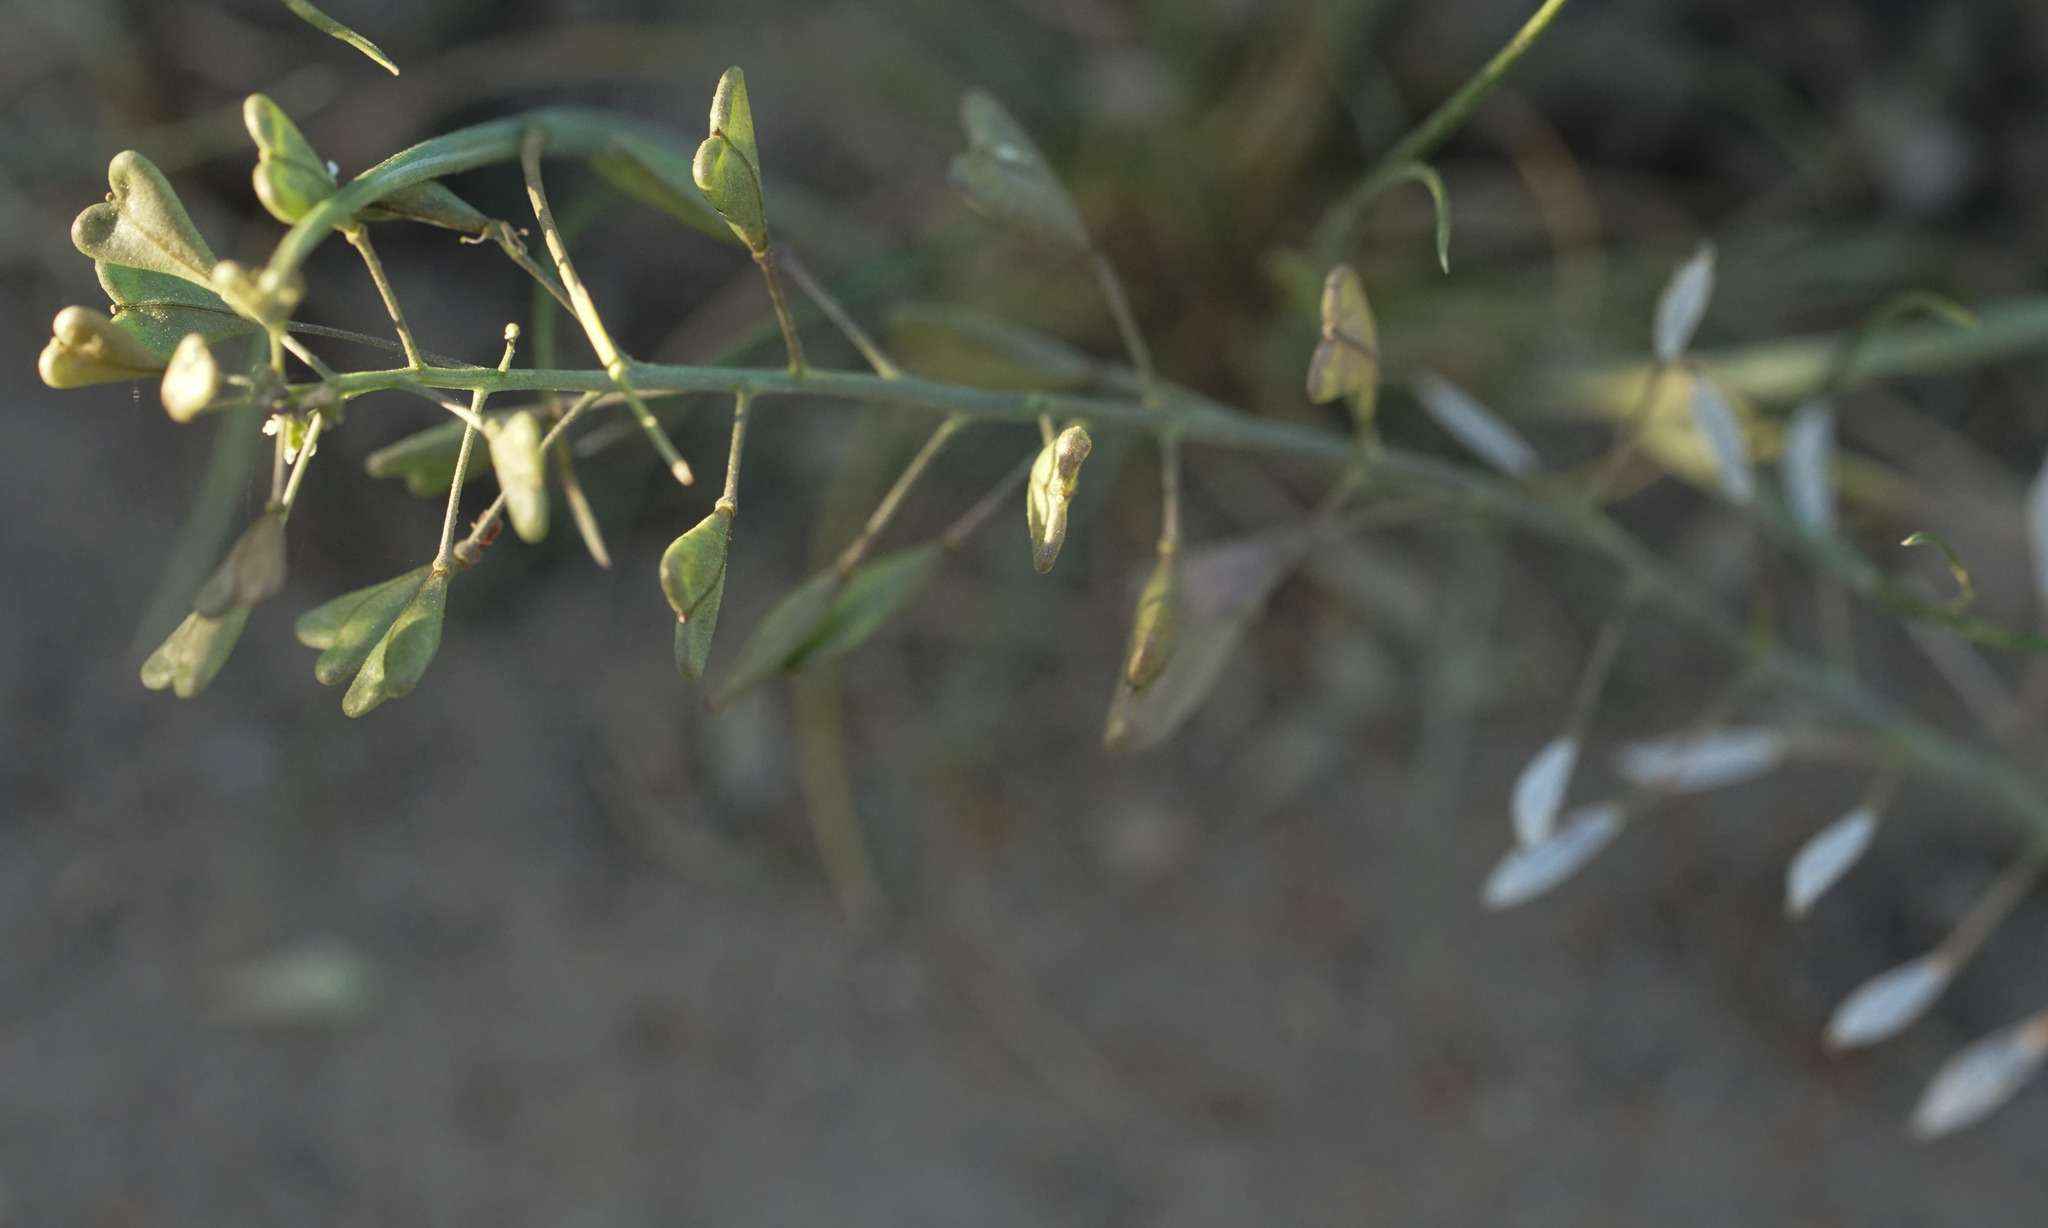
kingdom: Plantae
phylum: Tracheophyta
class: Magnoliopsida
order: Brassicales
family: Brassicaceae
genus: Capsella
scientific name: Capsella bursa-pastoris
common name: Shepherd's purse
